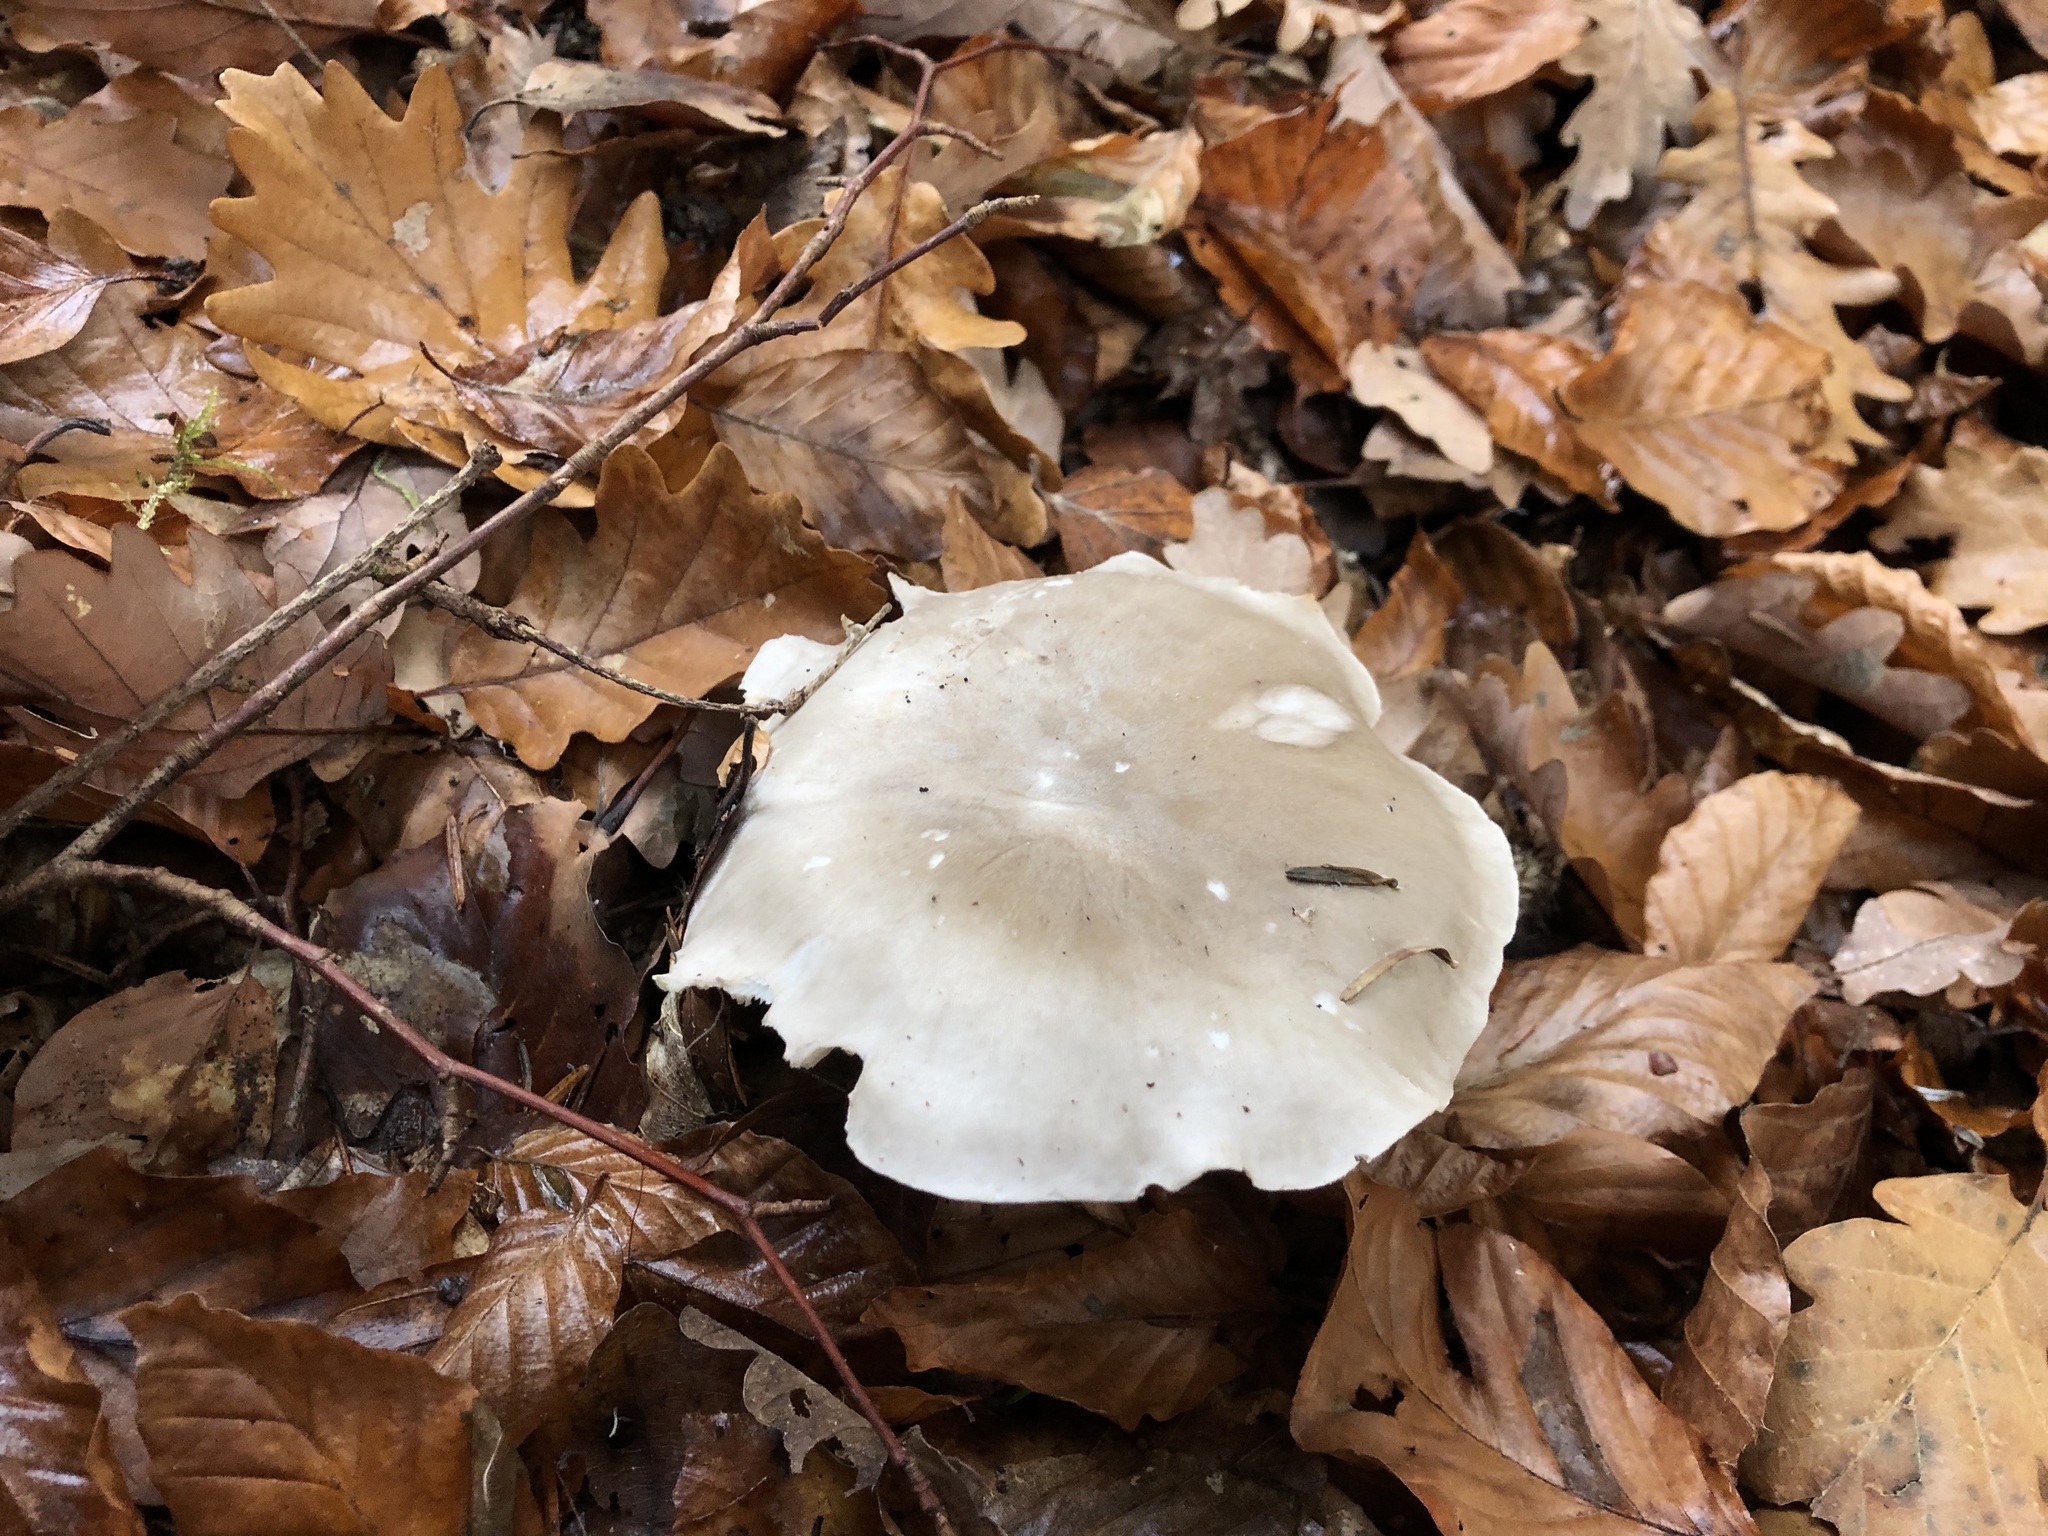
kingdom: Fungi
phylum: Basidiomycota
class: Agaricomycetes
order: Agaricales
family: Tricholomataceae
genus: Clitocybe
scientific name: Clitocybe nebularis
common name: Clouded agaric
